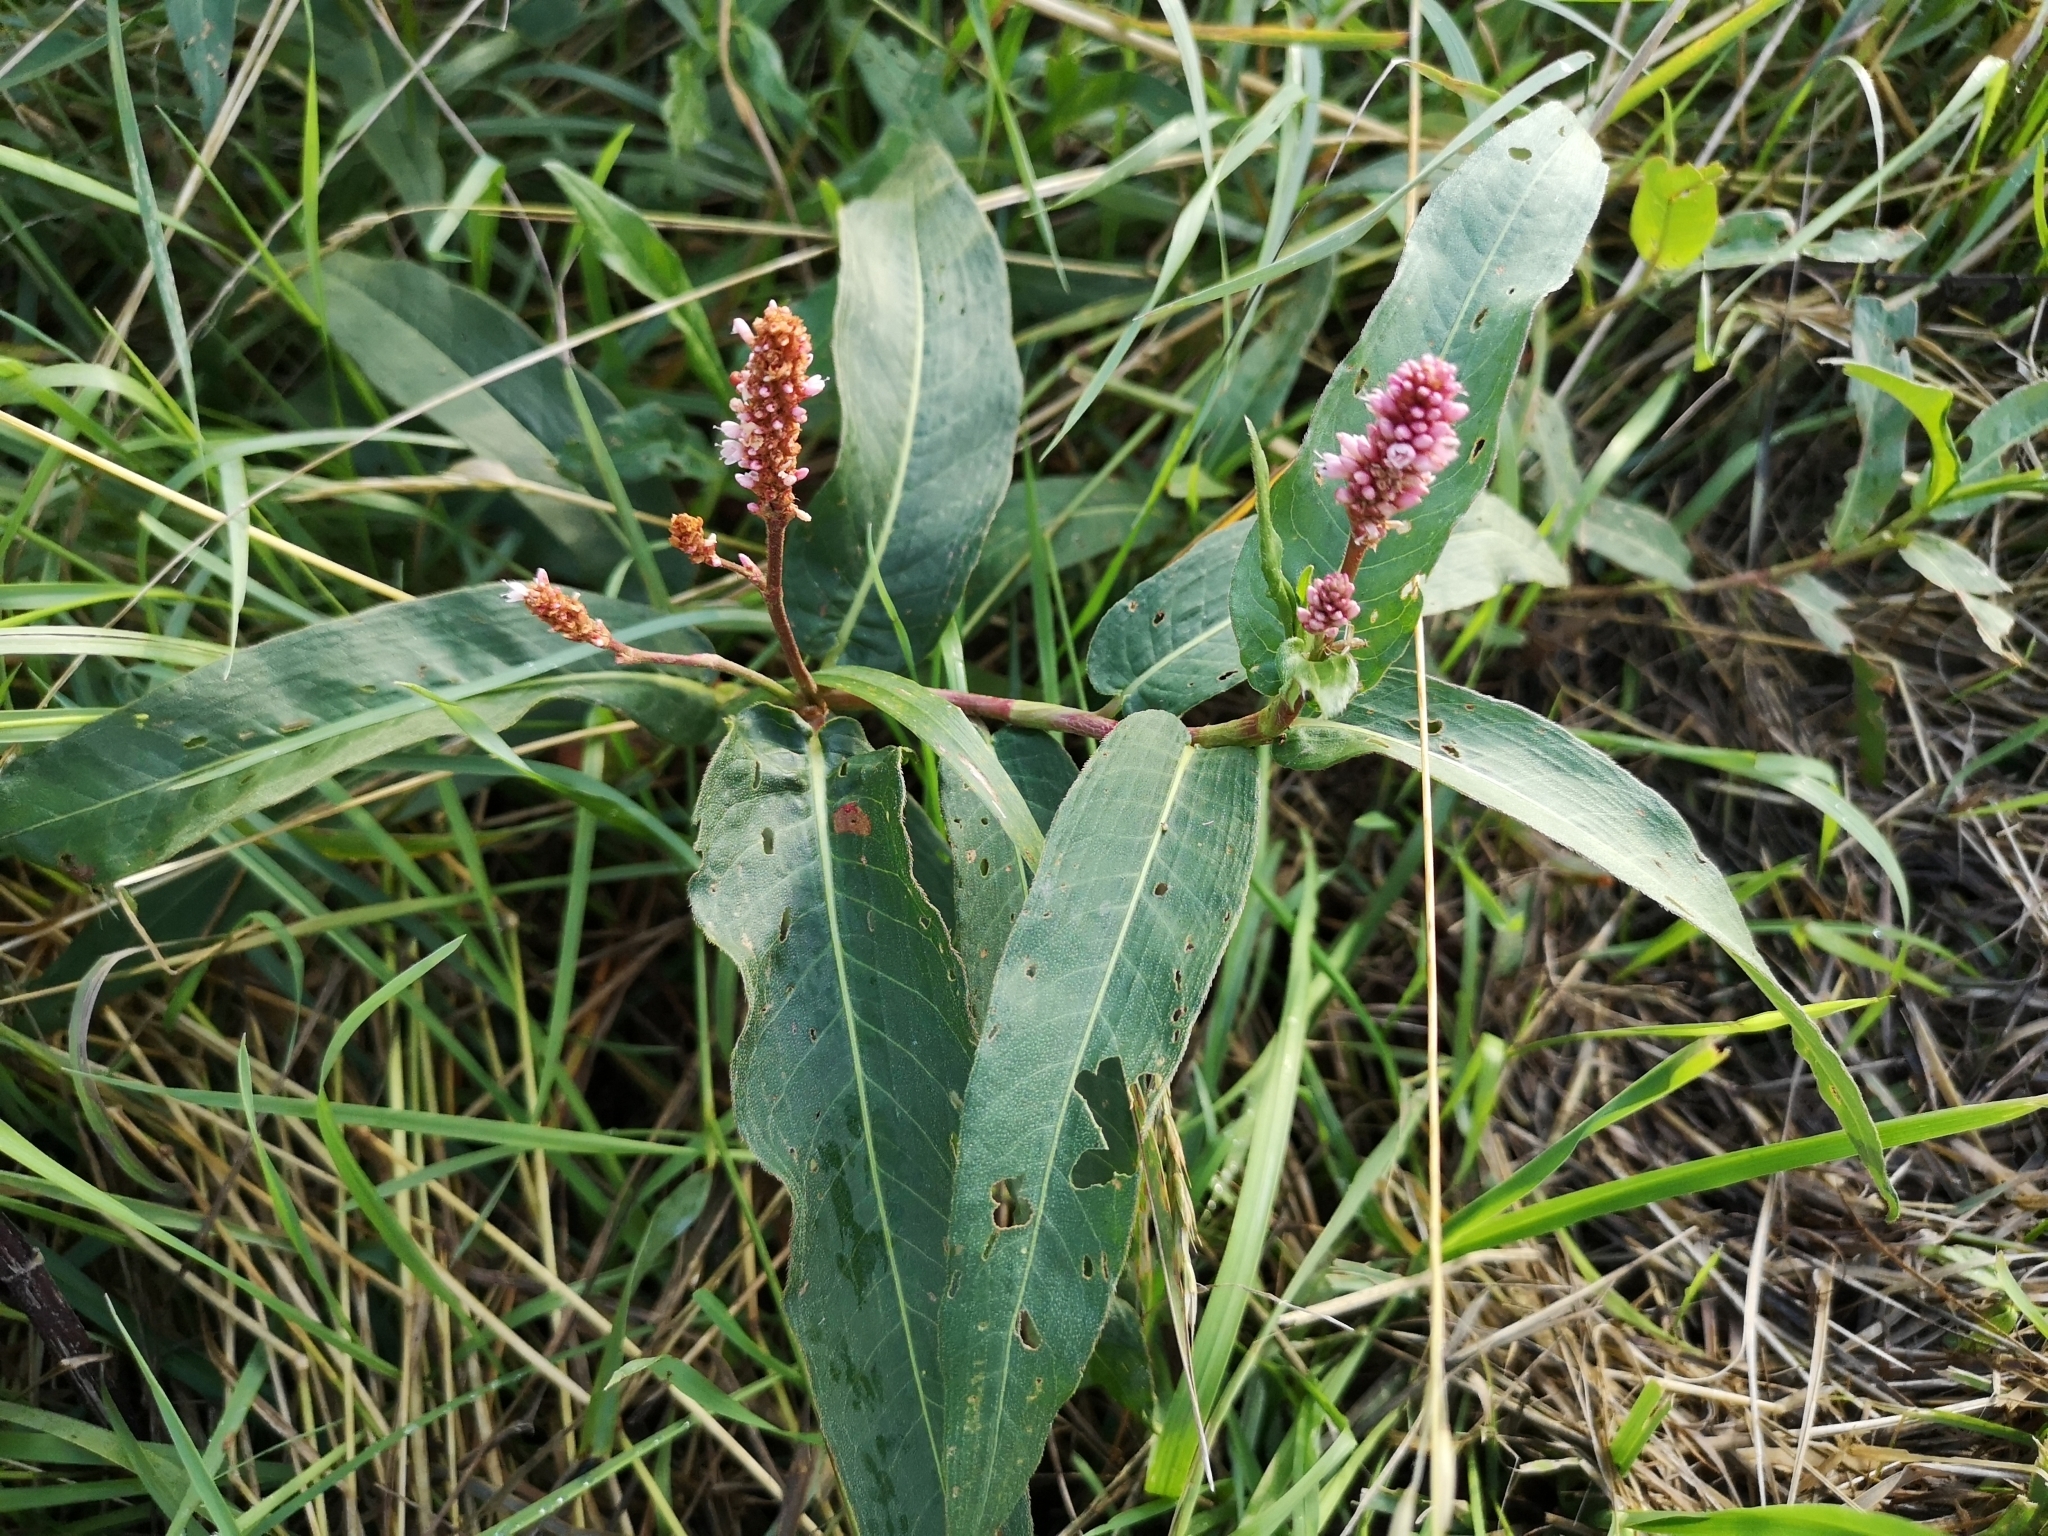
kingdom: Plantae
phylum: Tracheophyta
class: Magnoliopsida
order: Caryophyllales
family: Polygonaceae
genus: Persicaria
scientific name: Persicaria amphibia
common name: Amphibious bistort
